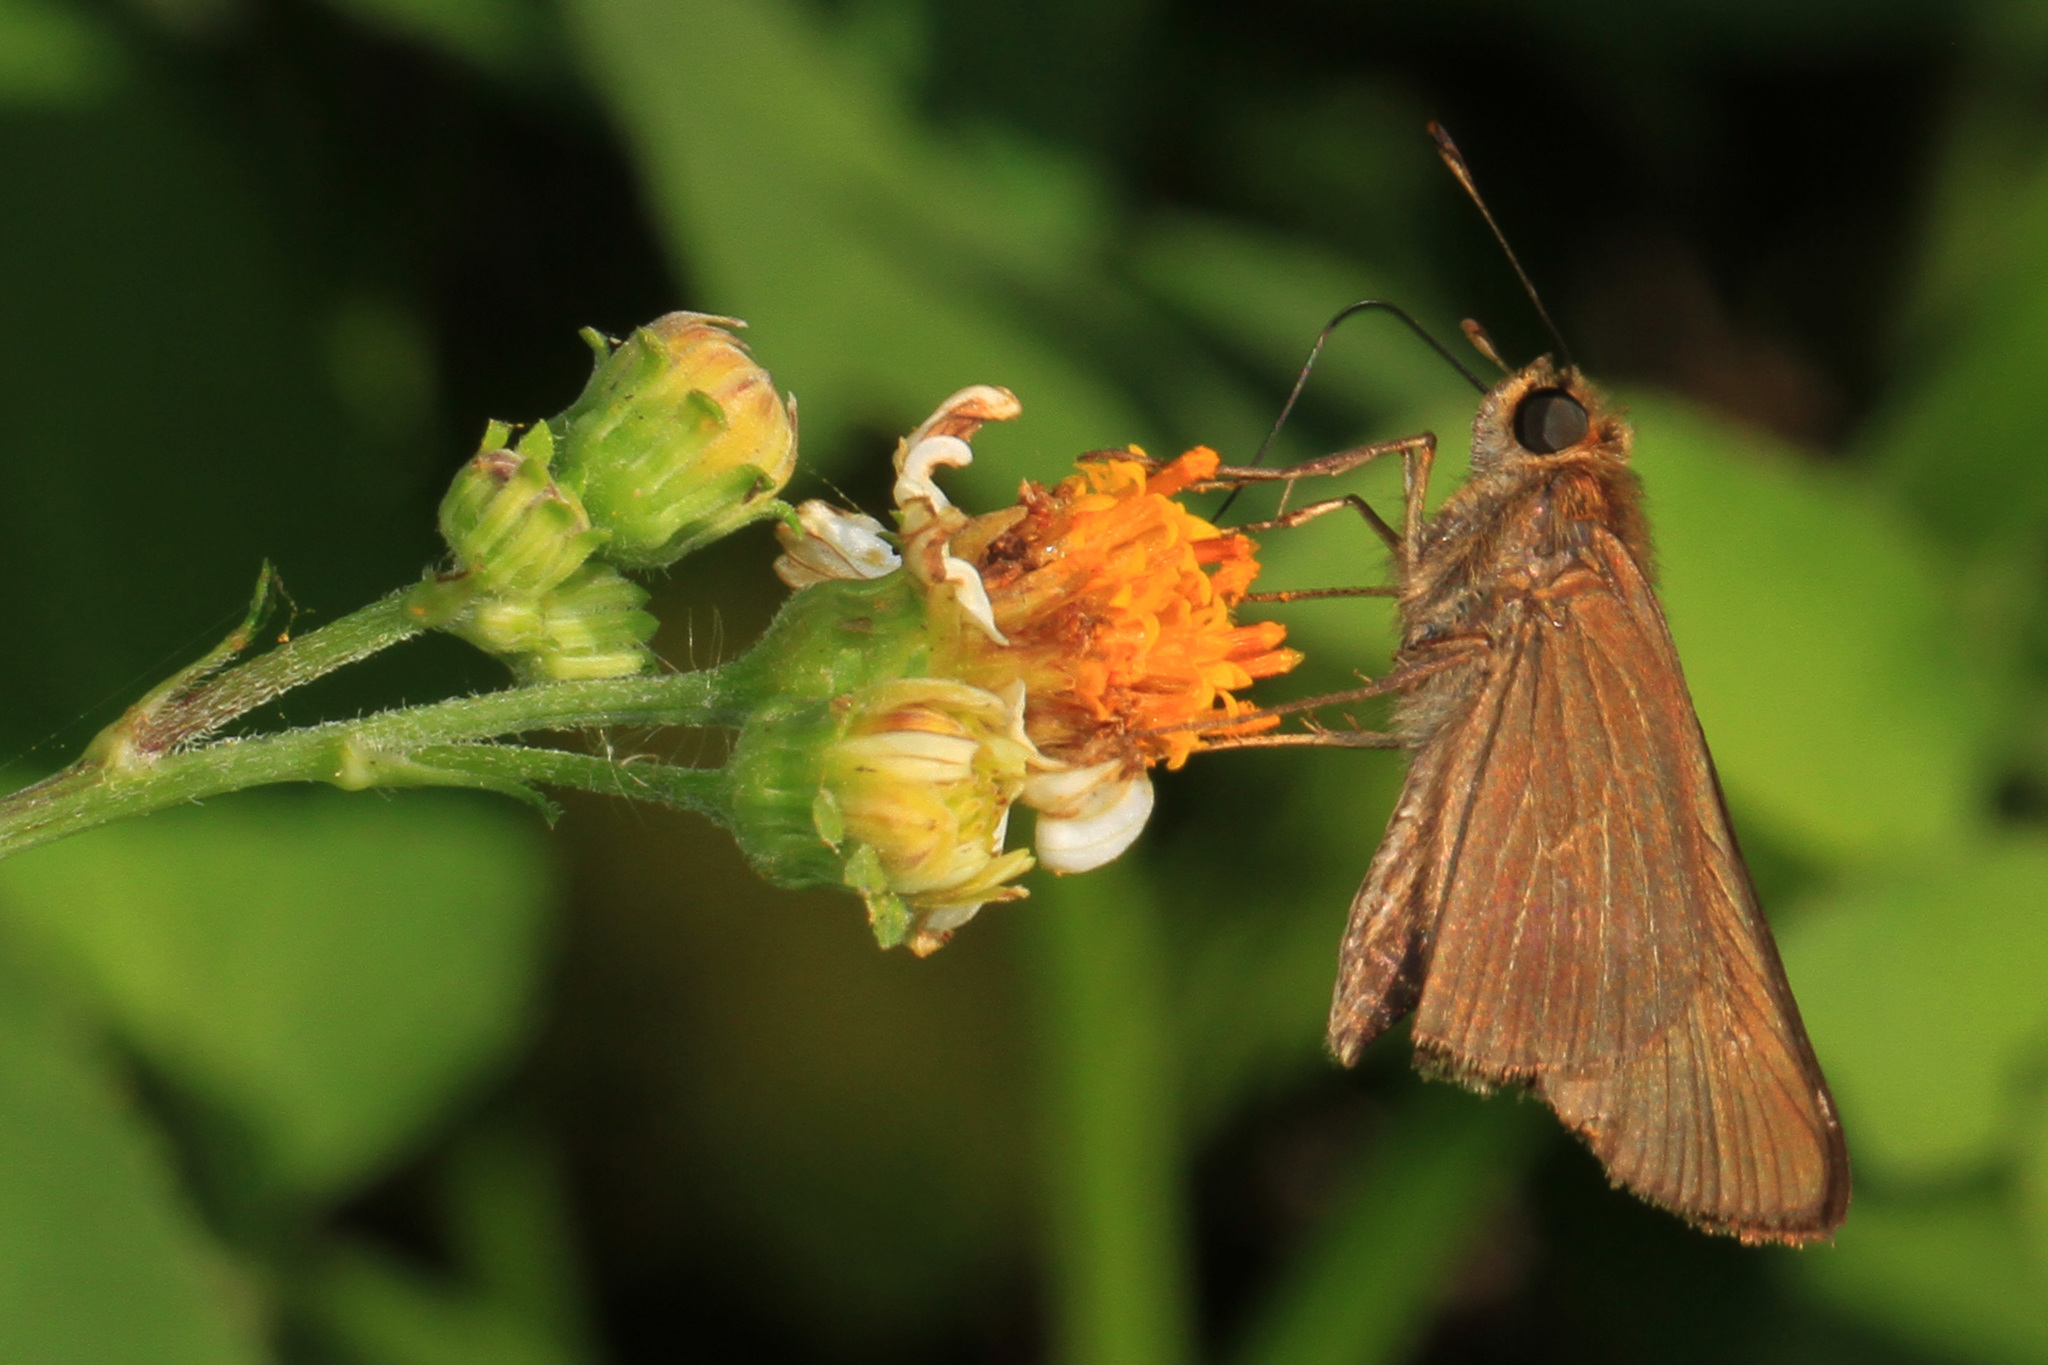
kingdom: Animalia
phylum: Arthropoda
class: Insecta
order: Lepidoptera
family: Hesperiidae
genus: Panoquina
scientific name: Panoquina ocola
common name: Ocola skipper
